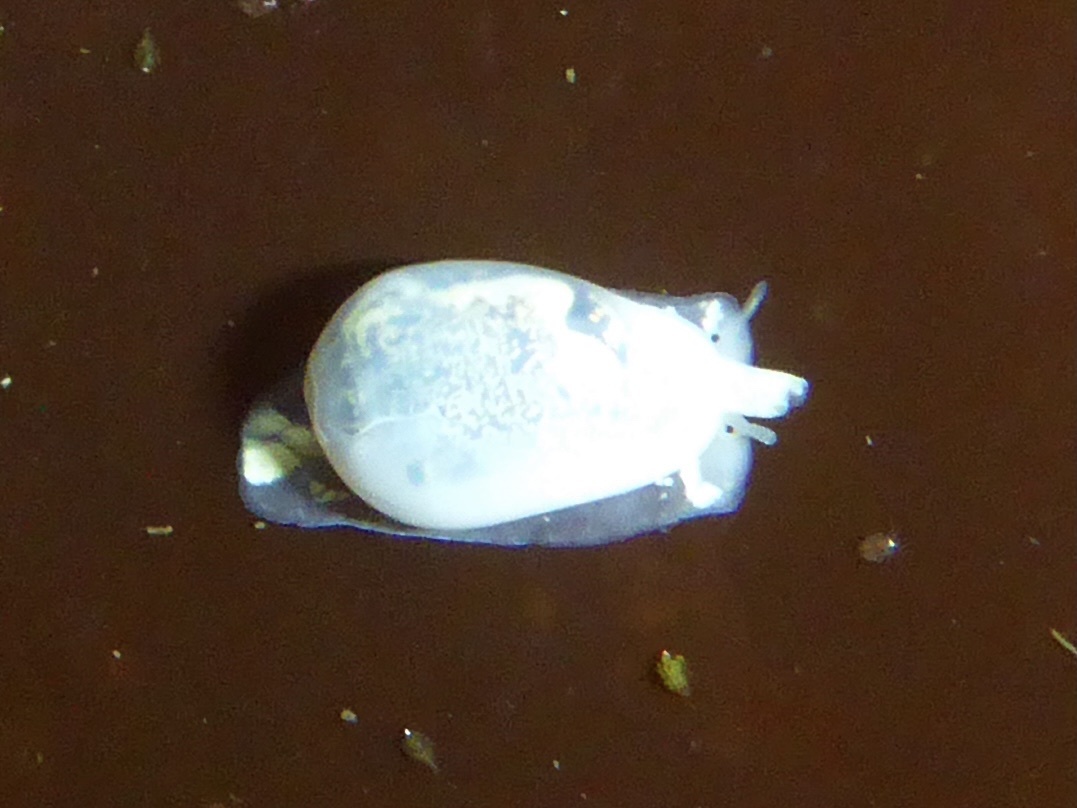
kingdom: Animalia
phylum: Mollusca
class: Gastropoda
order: Neogastropoda
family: Granulinidae
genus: Granulina
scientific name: Granulina margaritula
